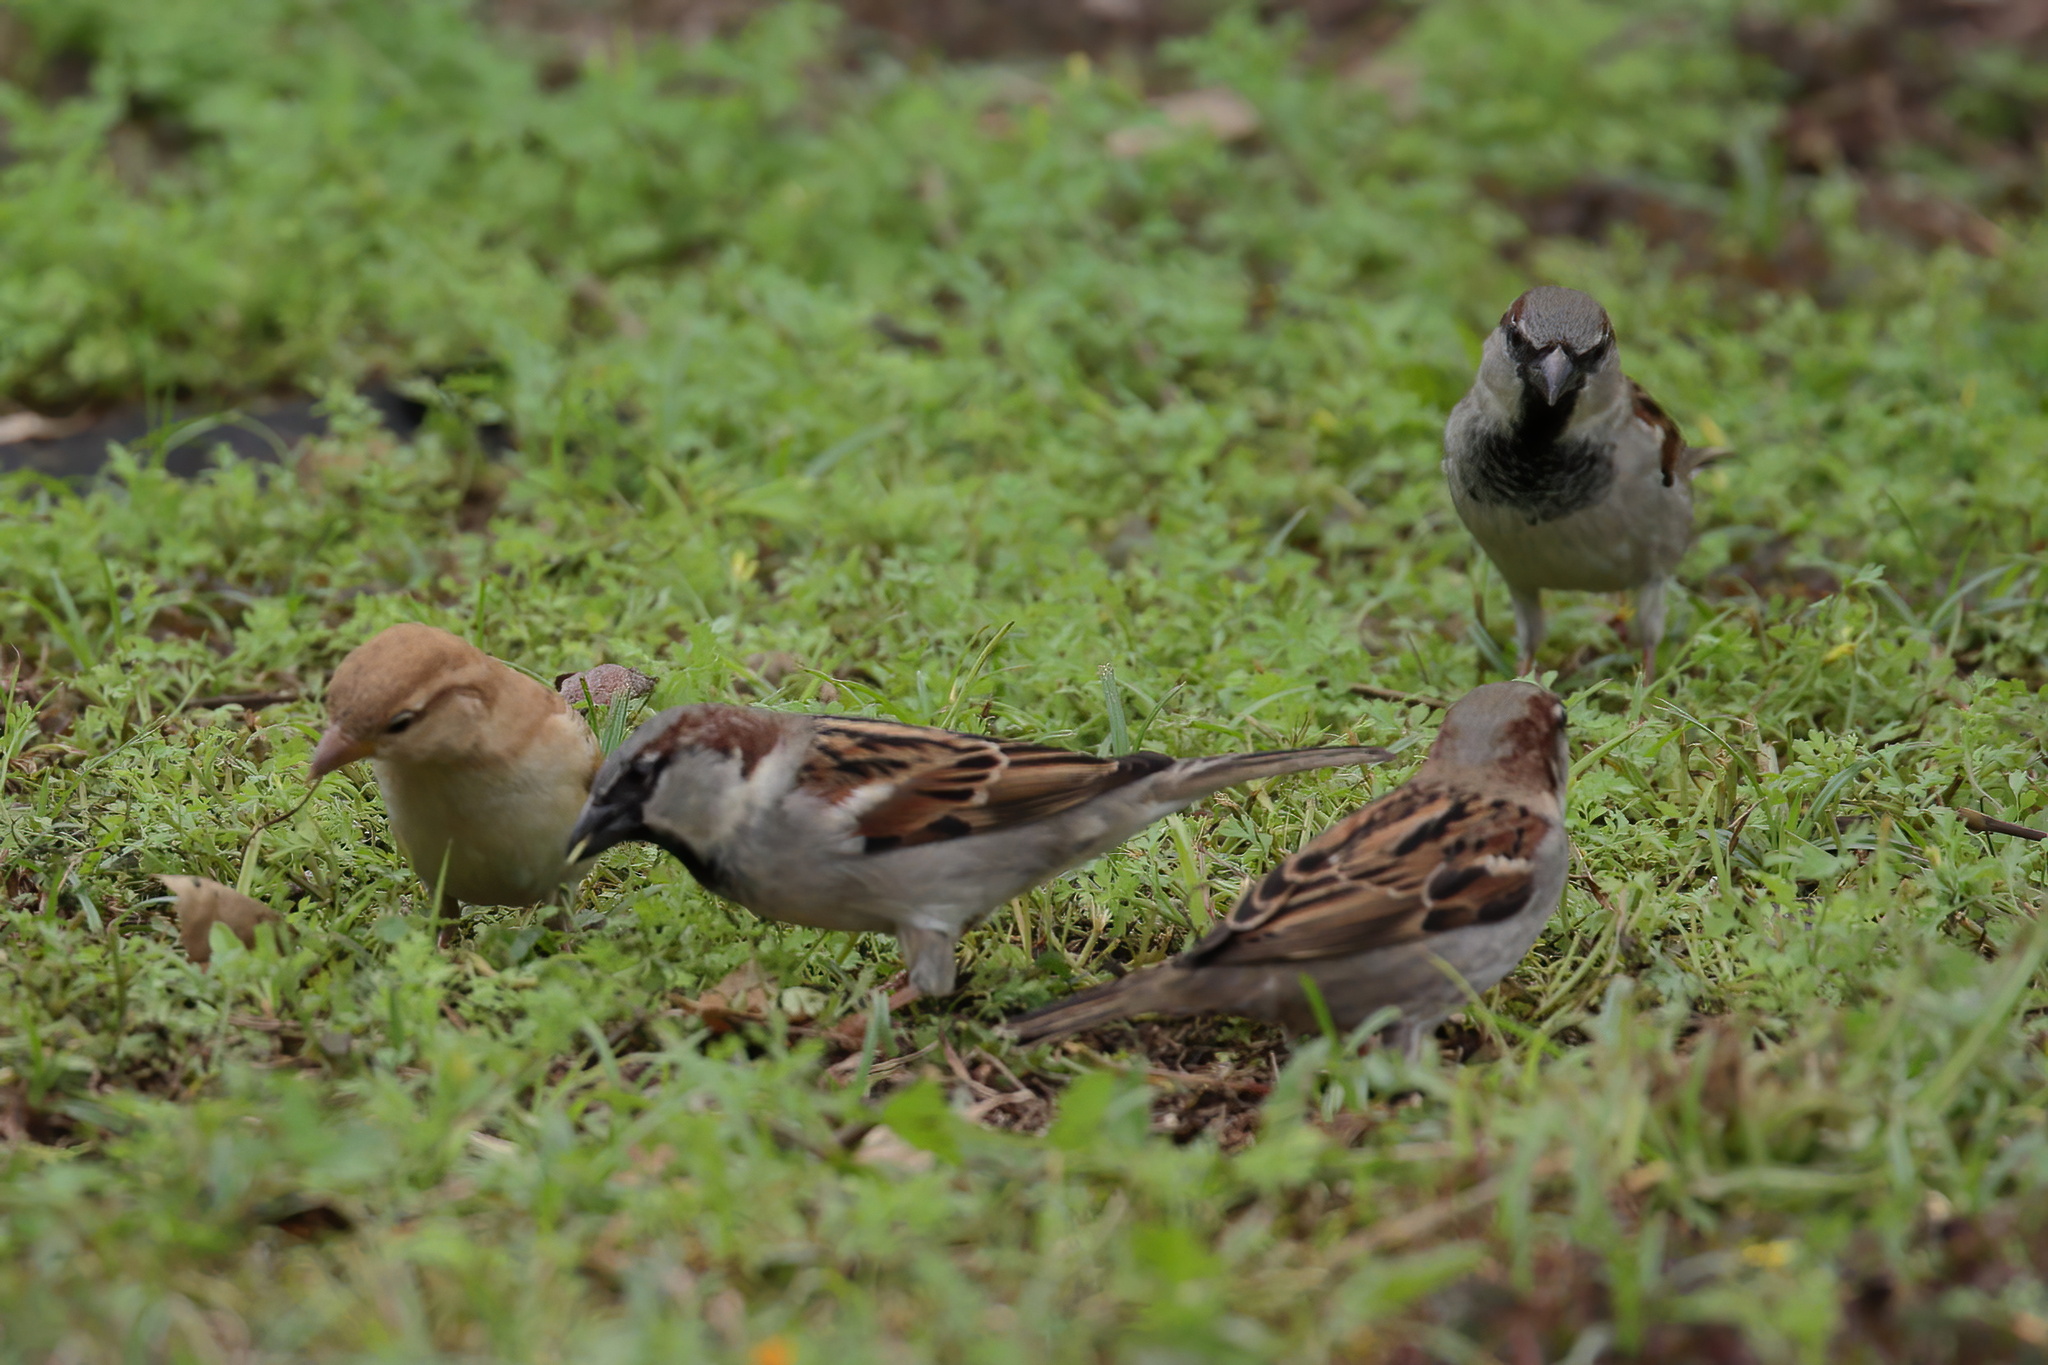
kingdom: Animalia
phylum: Chordata
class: Aves
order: Passeriformes
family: Passeridae
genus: Passer
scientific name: Passer domesticus
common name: House sparrow
